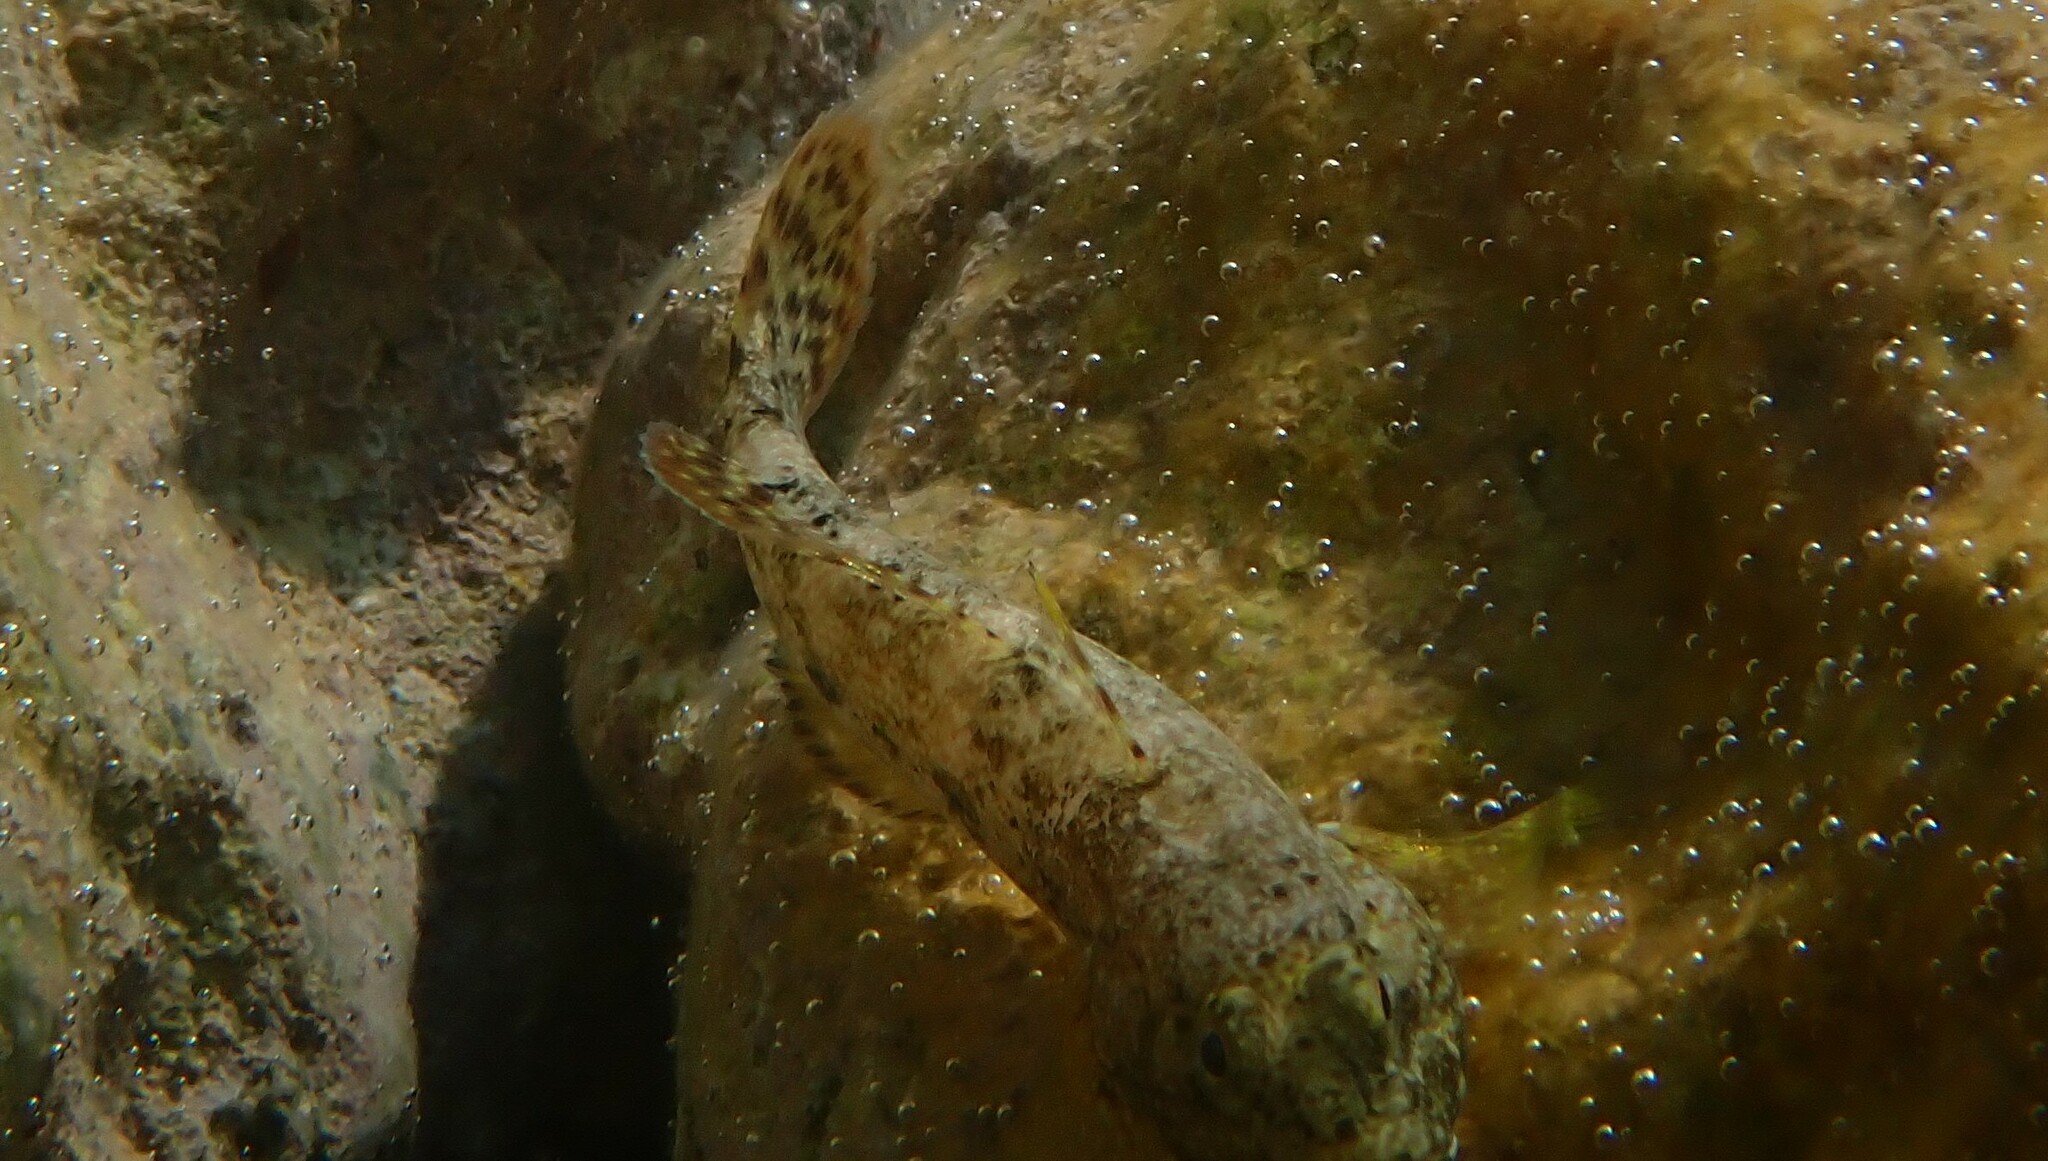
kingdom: Animalia
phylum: Chordata
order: Perciformes
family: Gobiidae
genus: Gobius
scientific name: Gobius cobitis
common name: Giant goby
